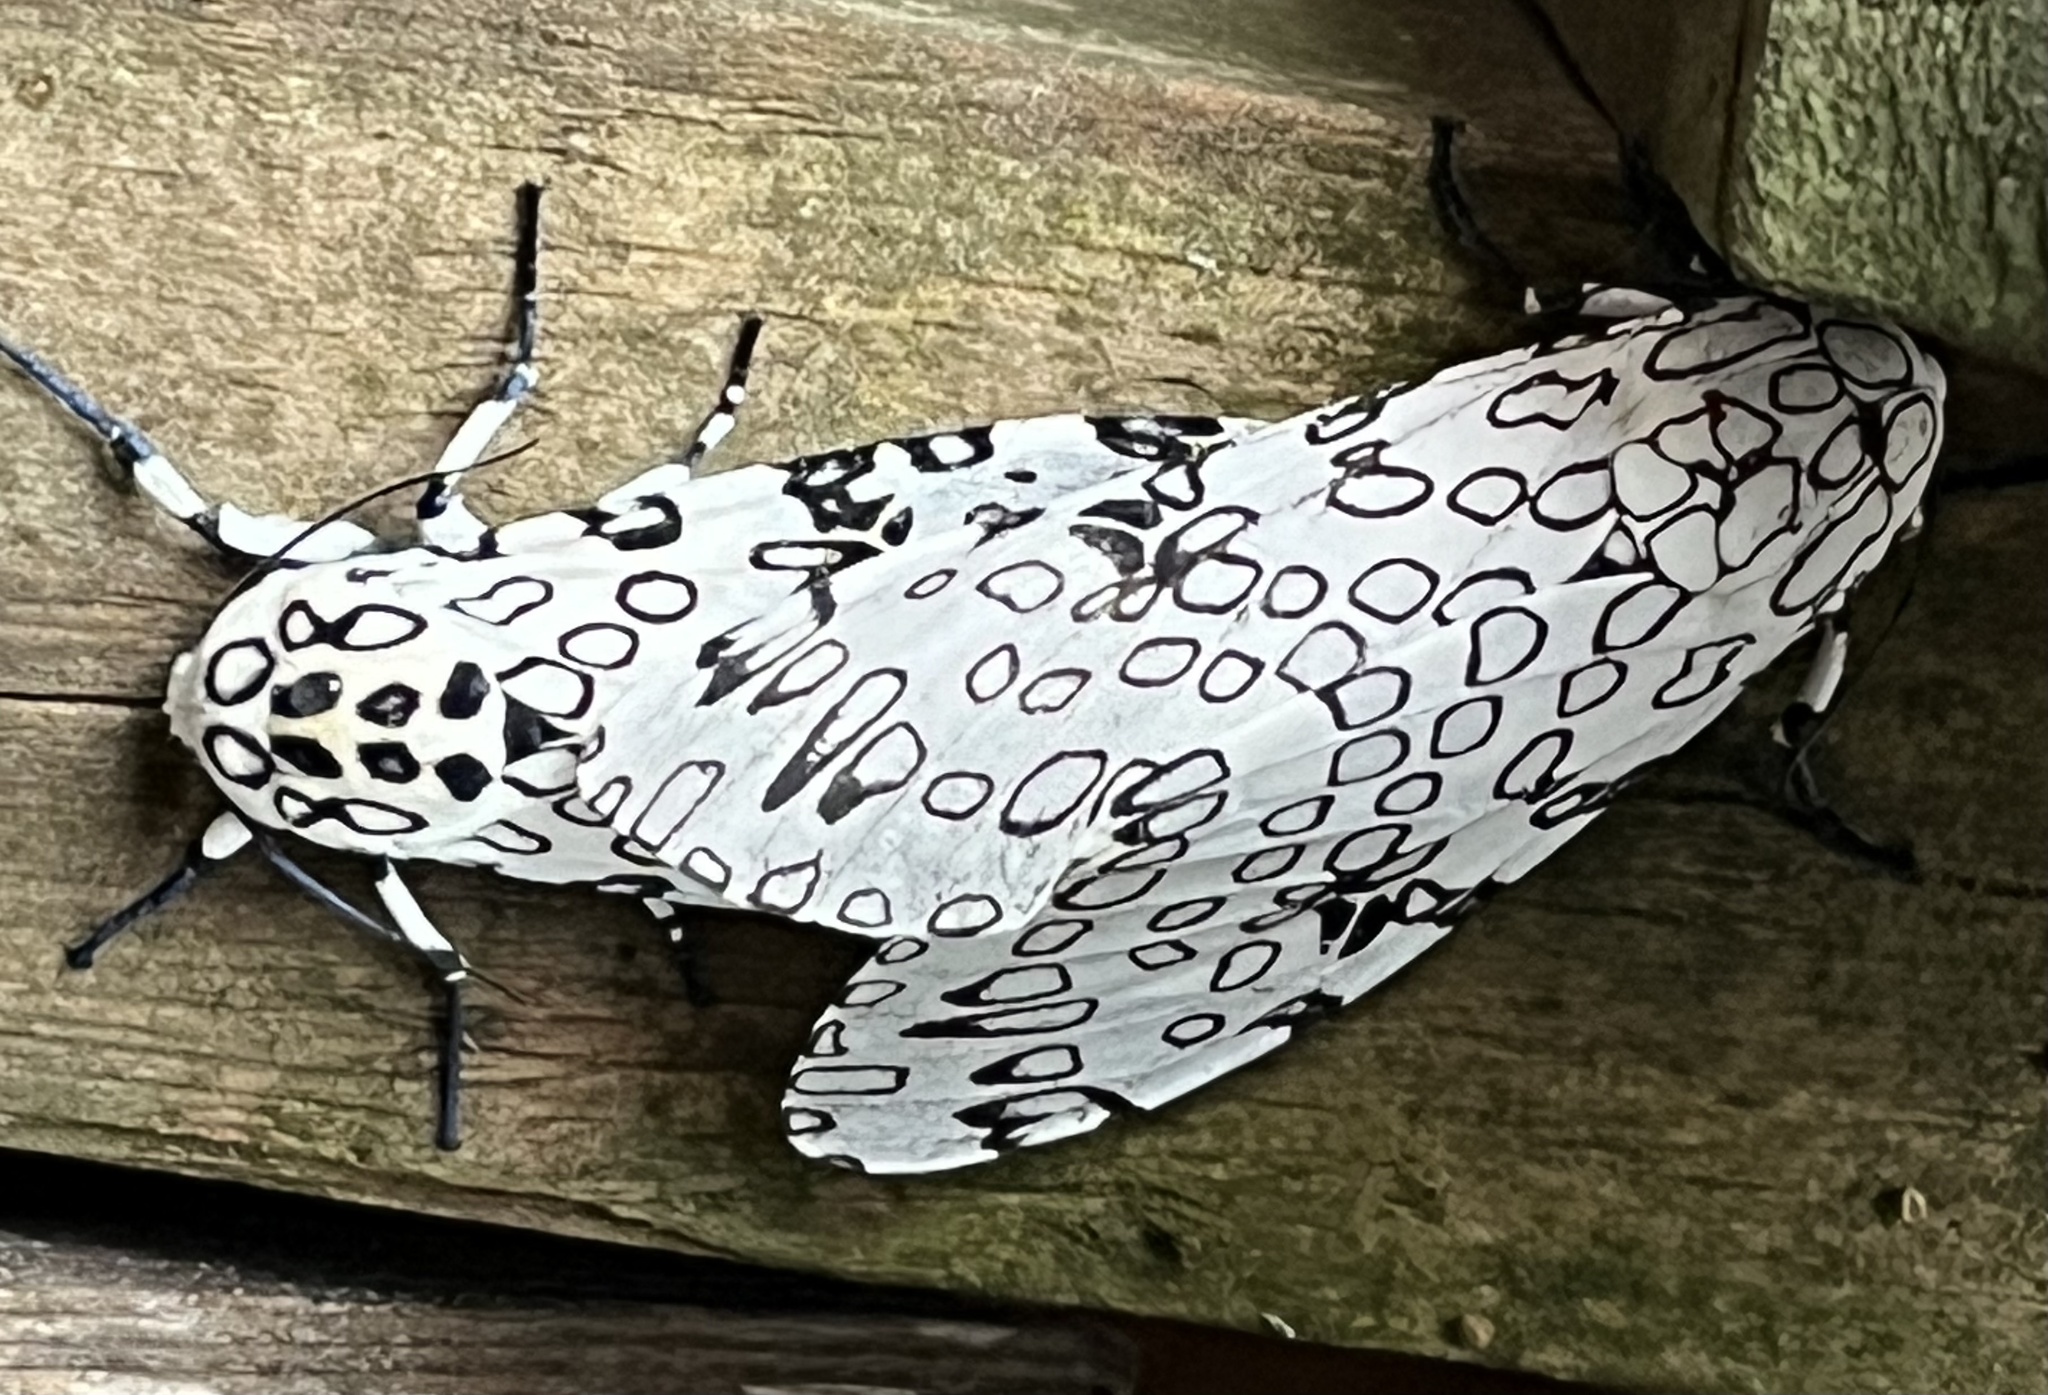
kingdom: Animalia
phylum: Arthropoda
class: Insecta
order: Lepidoptera
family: Erebidae
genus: Hypercompe
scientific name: Hypercompe scribonia
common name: Giant leopard moth
